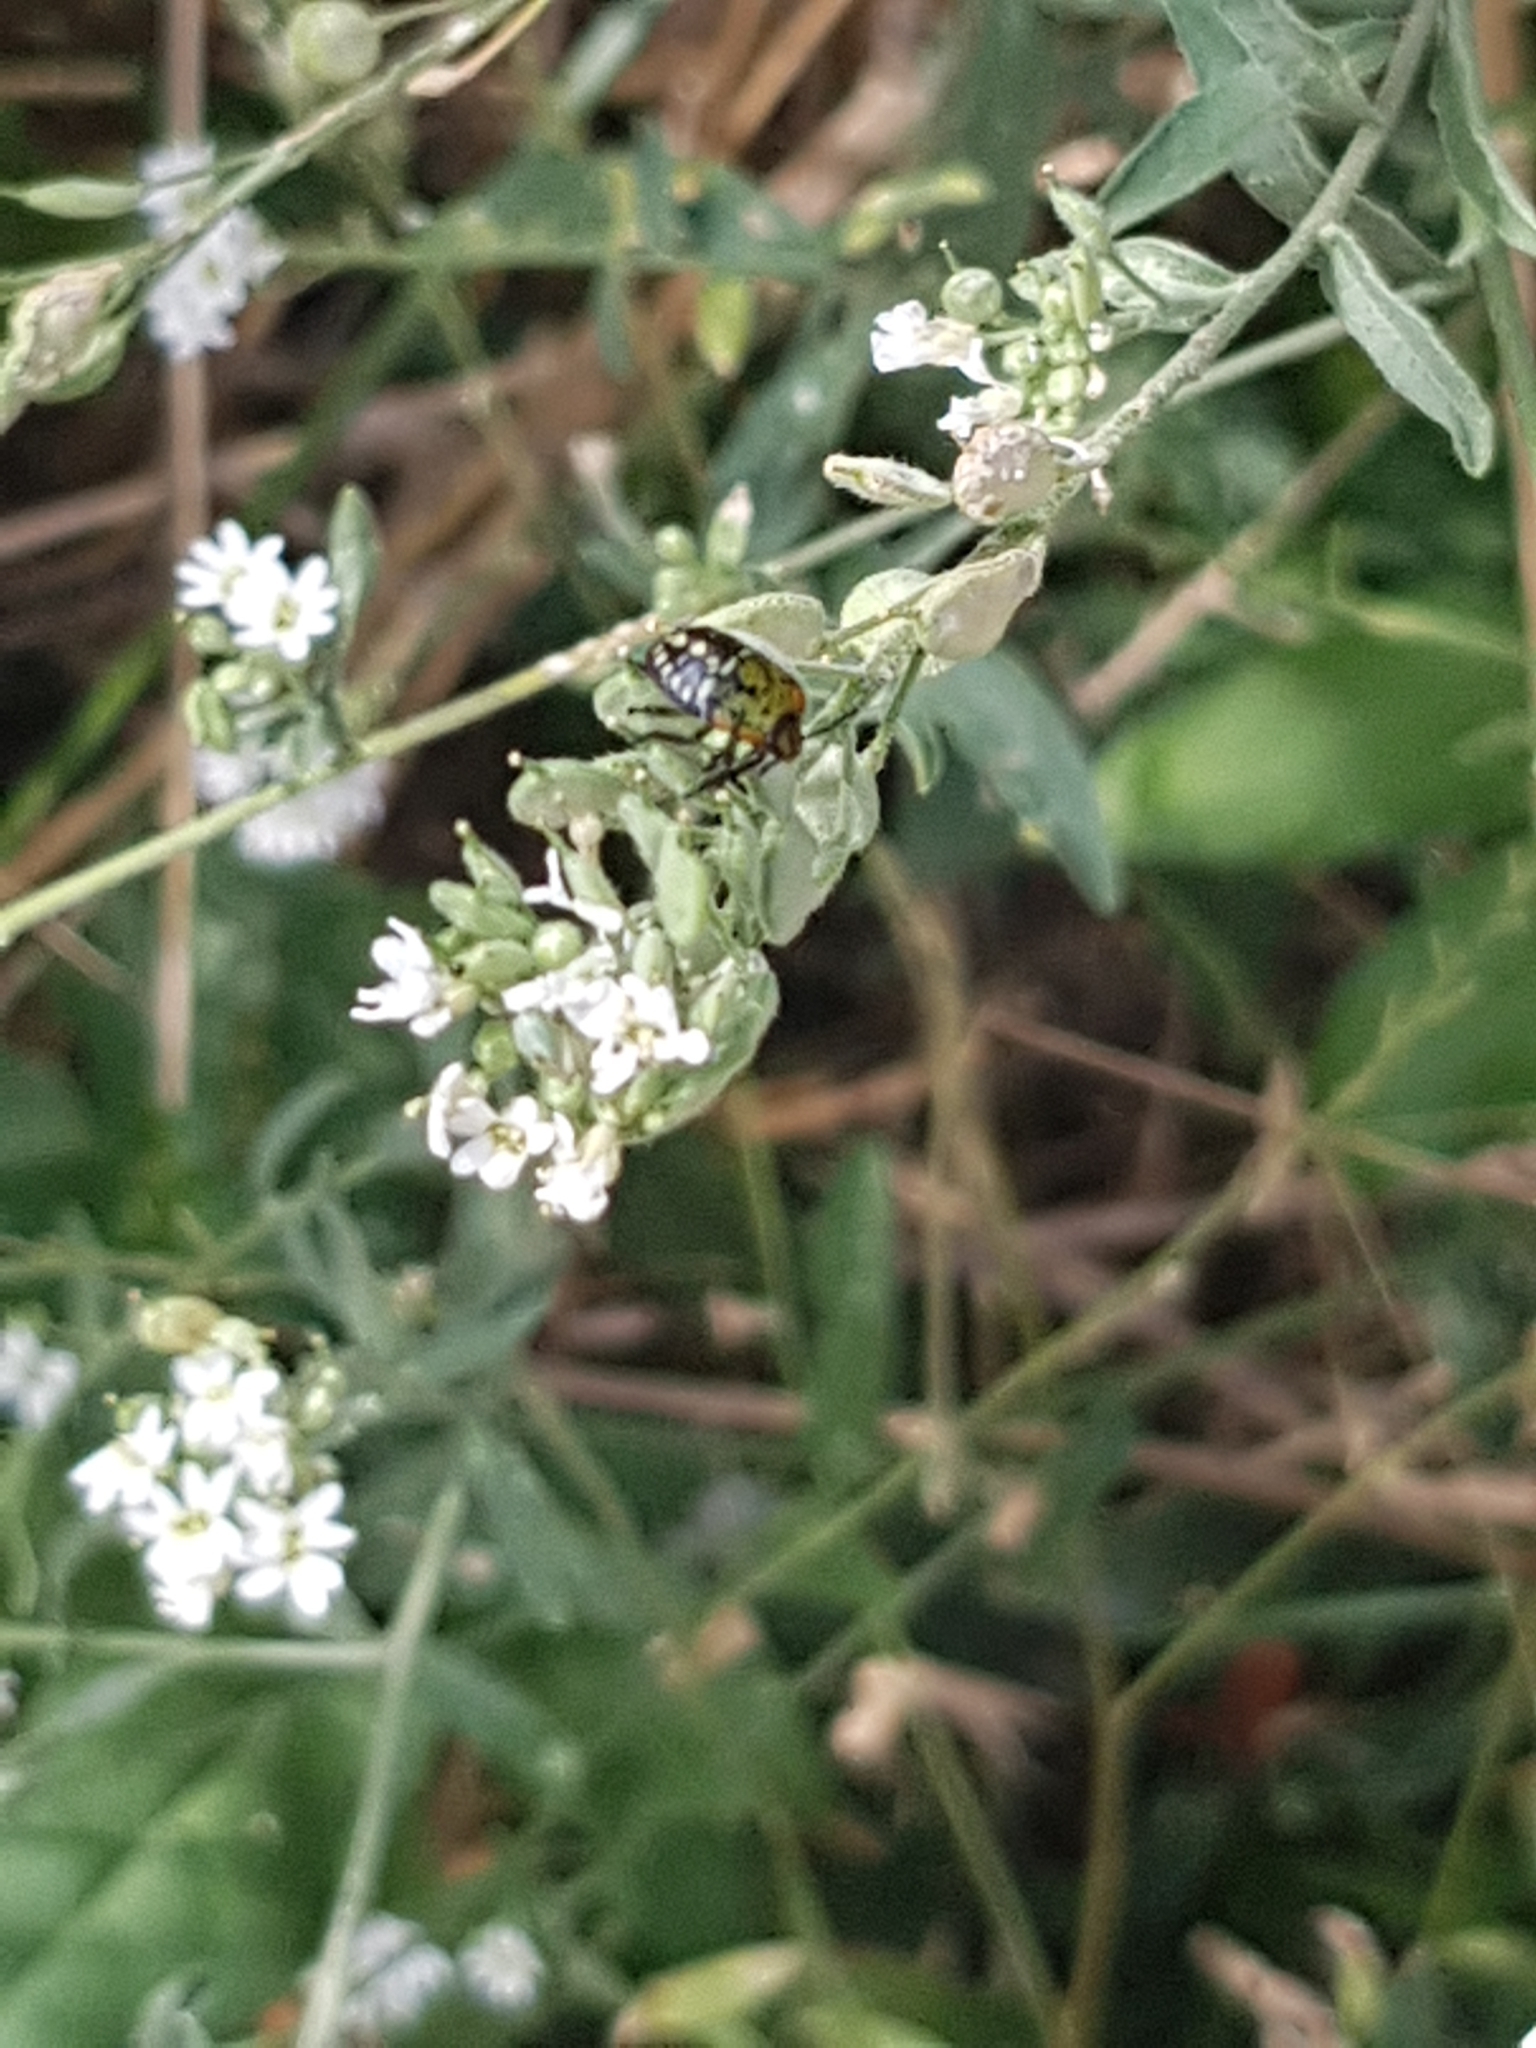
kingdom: Plantae
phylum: Tracheophyta
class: Magnoliopsida
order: Brassicales
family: Brassicaceae
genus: Berteroa
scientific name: Berteroa incana
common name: Hoary alison
